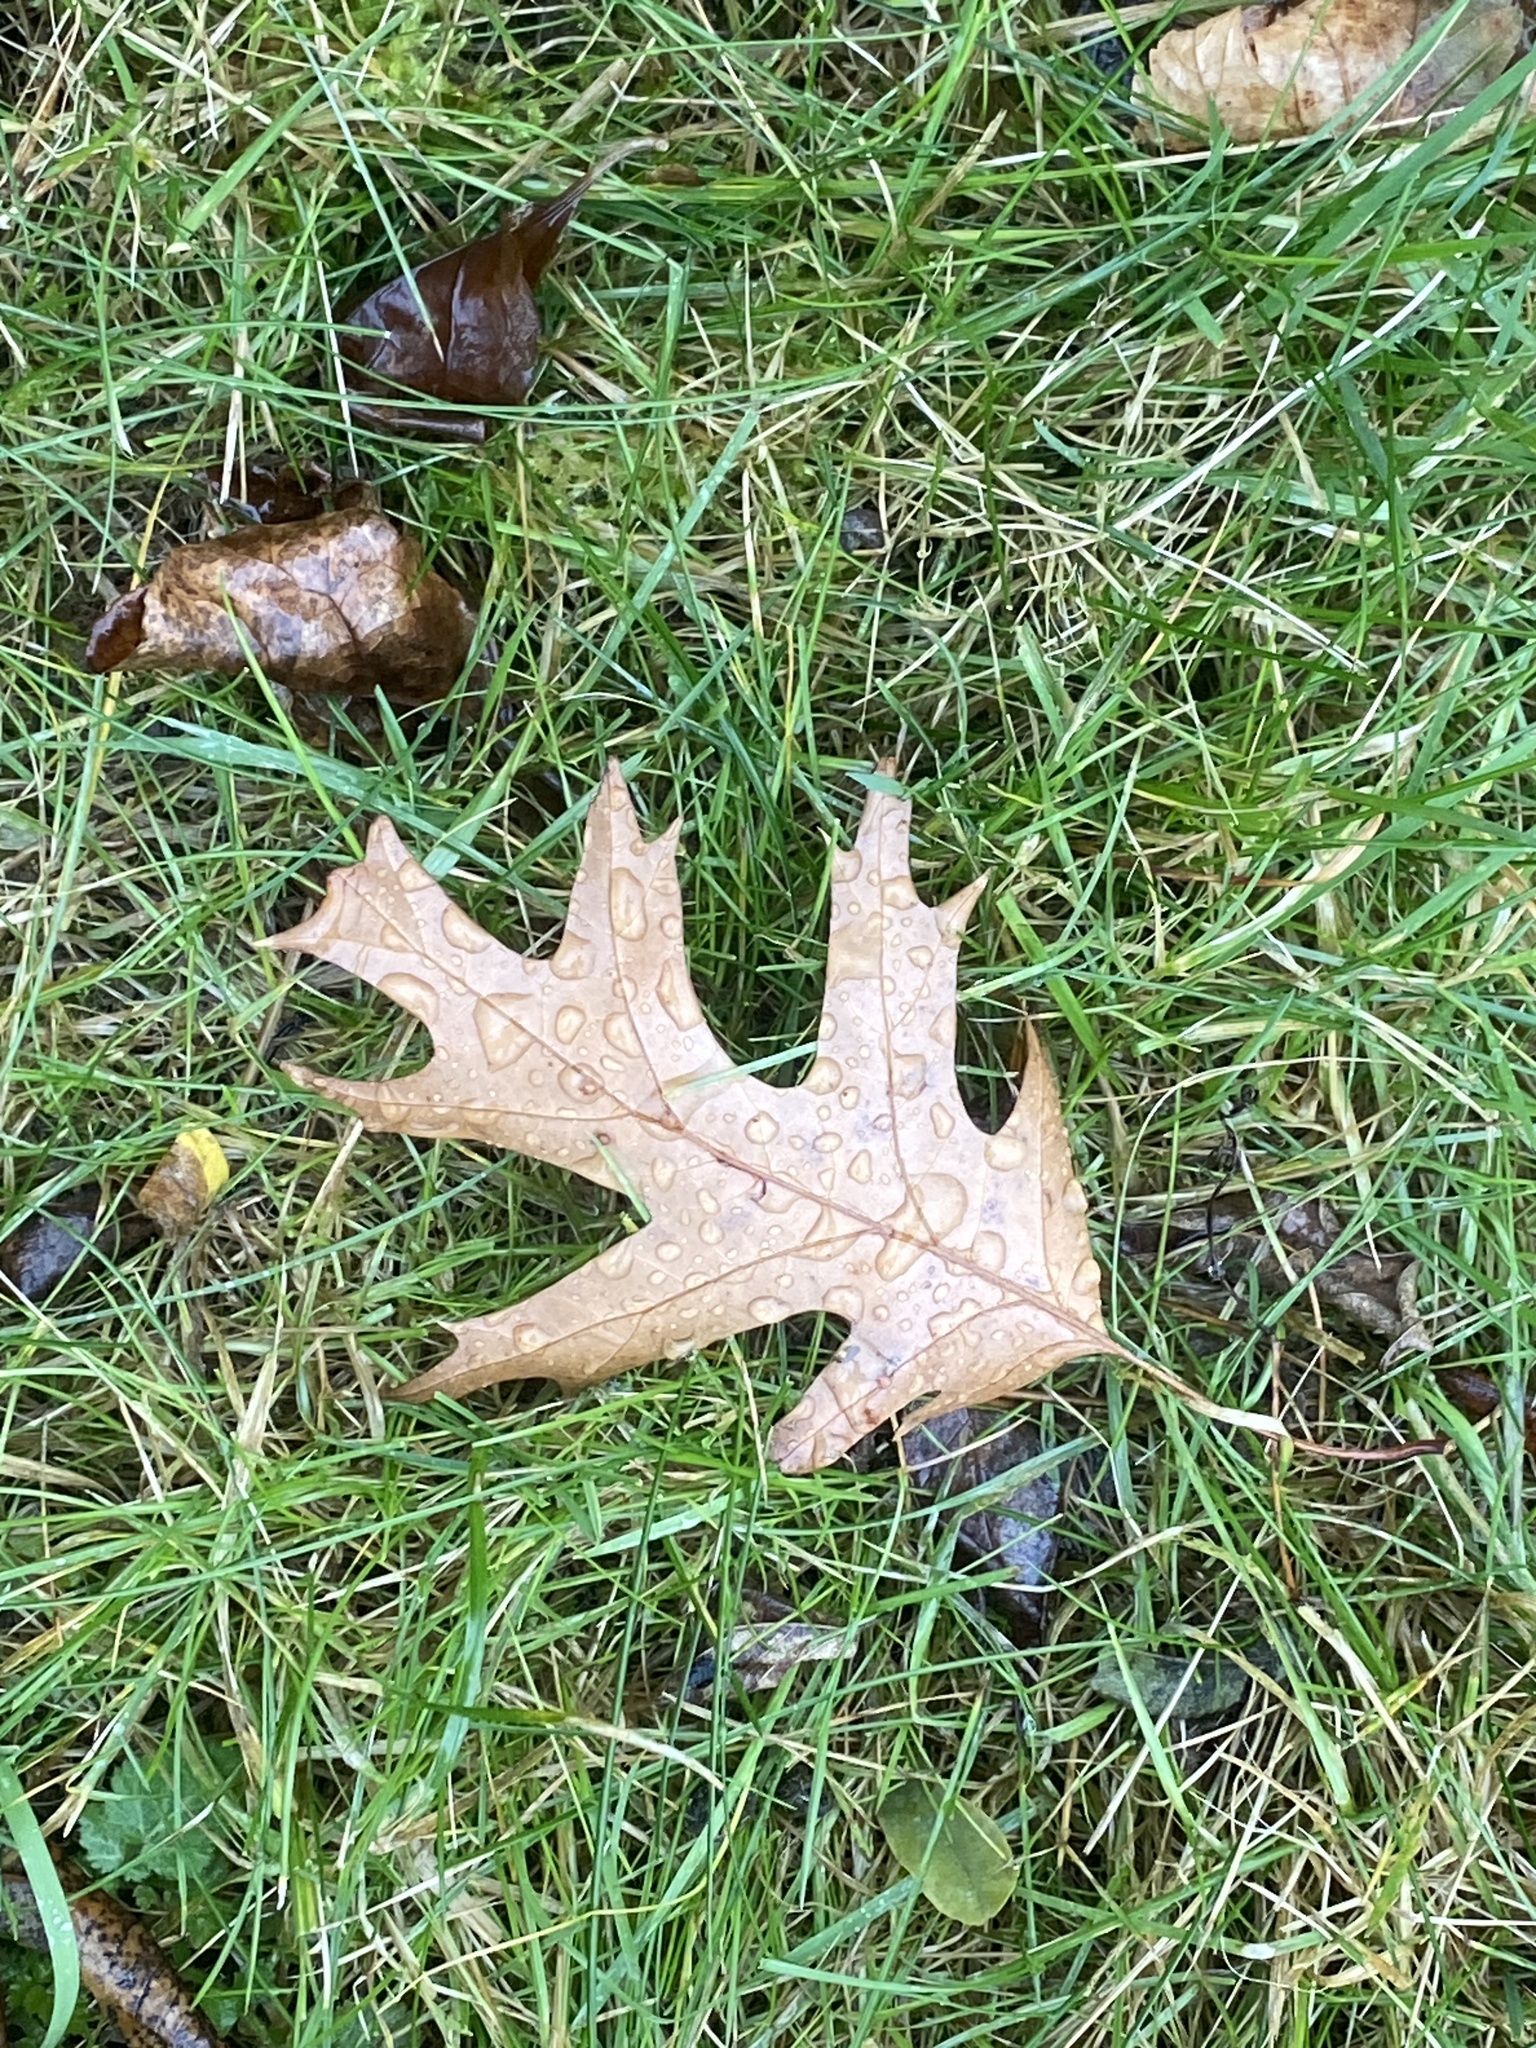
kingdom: Plantae
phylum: Tracheophyta
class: Magnoliopsida
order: Fagales
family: Fagaceae
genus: Quercus
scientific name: Quercus rubra
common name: Red oak
